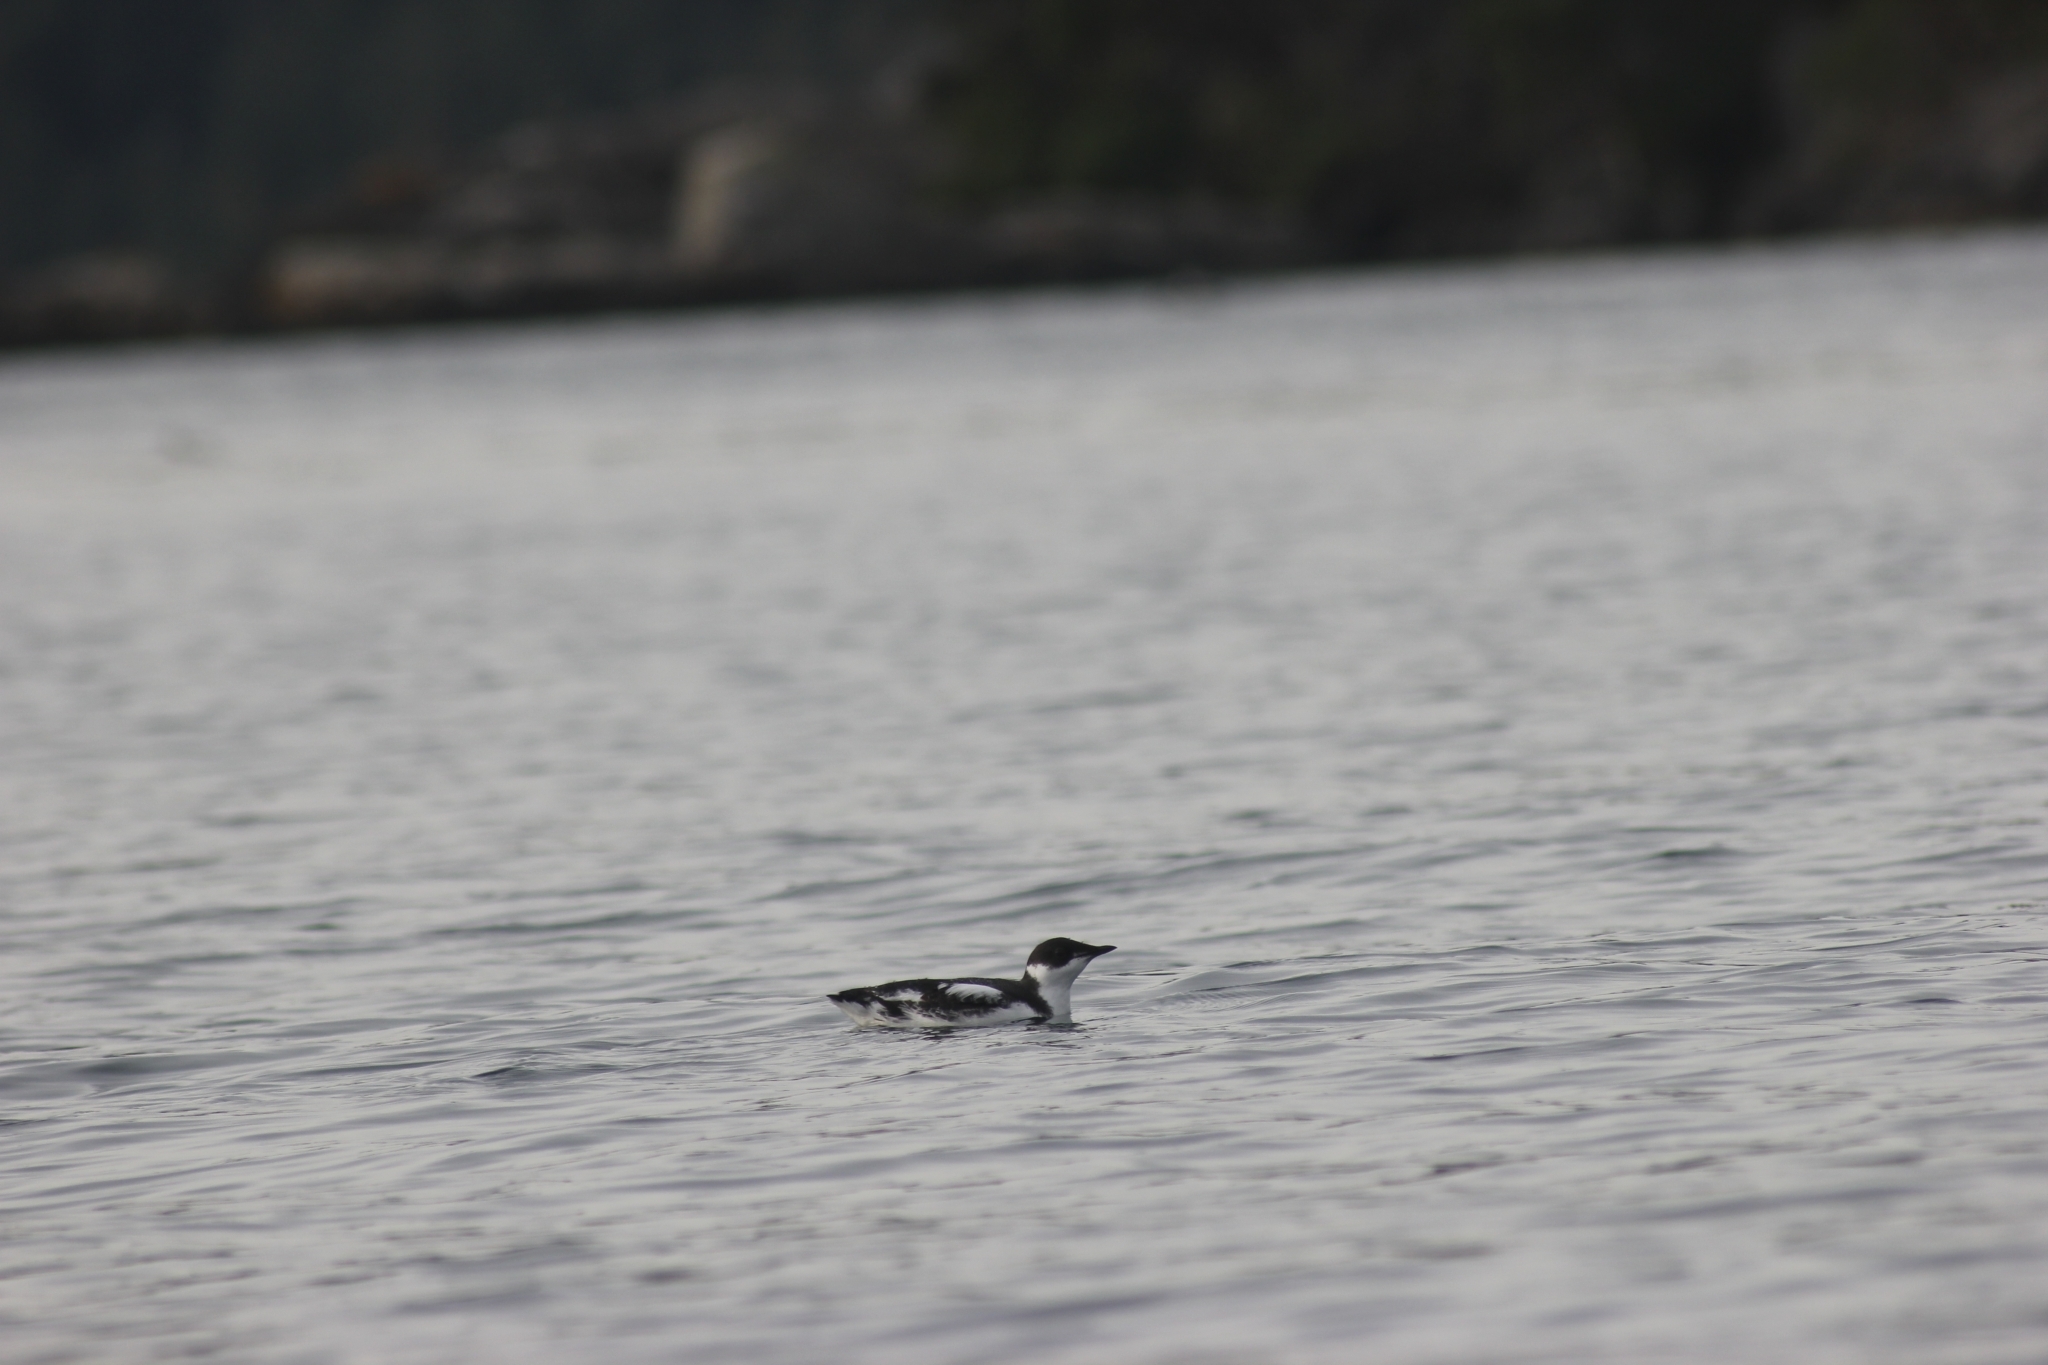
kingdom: Animalia
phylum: Chordata
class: Aves
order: Charadriiformes
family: Alcidae
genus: Brachyramphus
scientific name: Brachyramphus marmoratus
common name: Marbled murrelet
